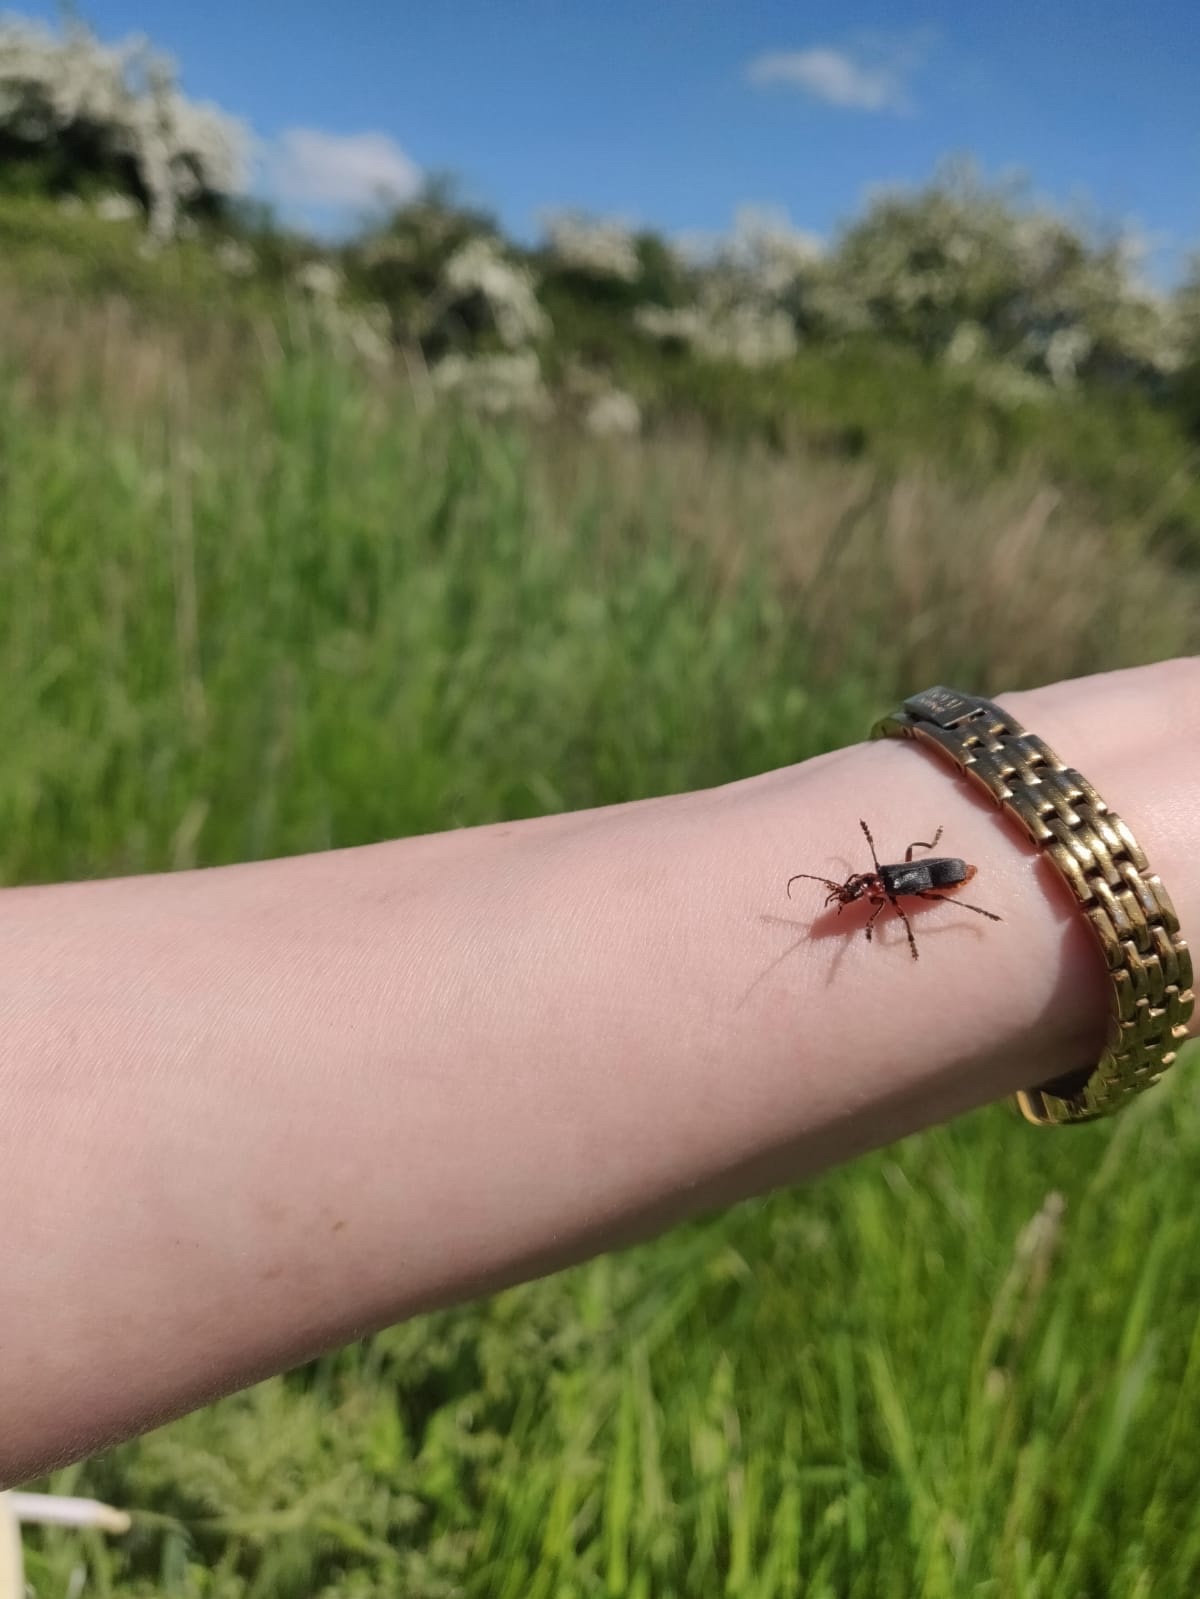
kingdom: Animalia
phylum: Arthropoda
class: Insecta
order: Coleoptera
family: Cantharidae
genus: Cantharis
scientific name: Cantharis rustica
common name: Soldier beetle
